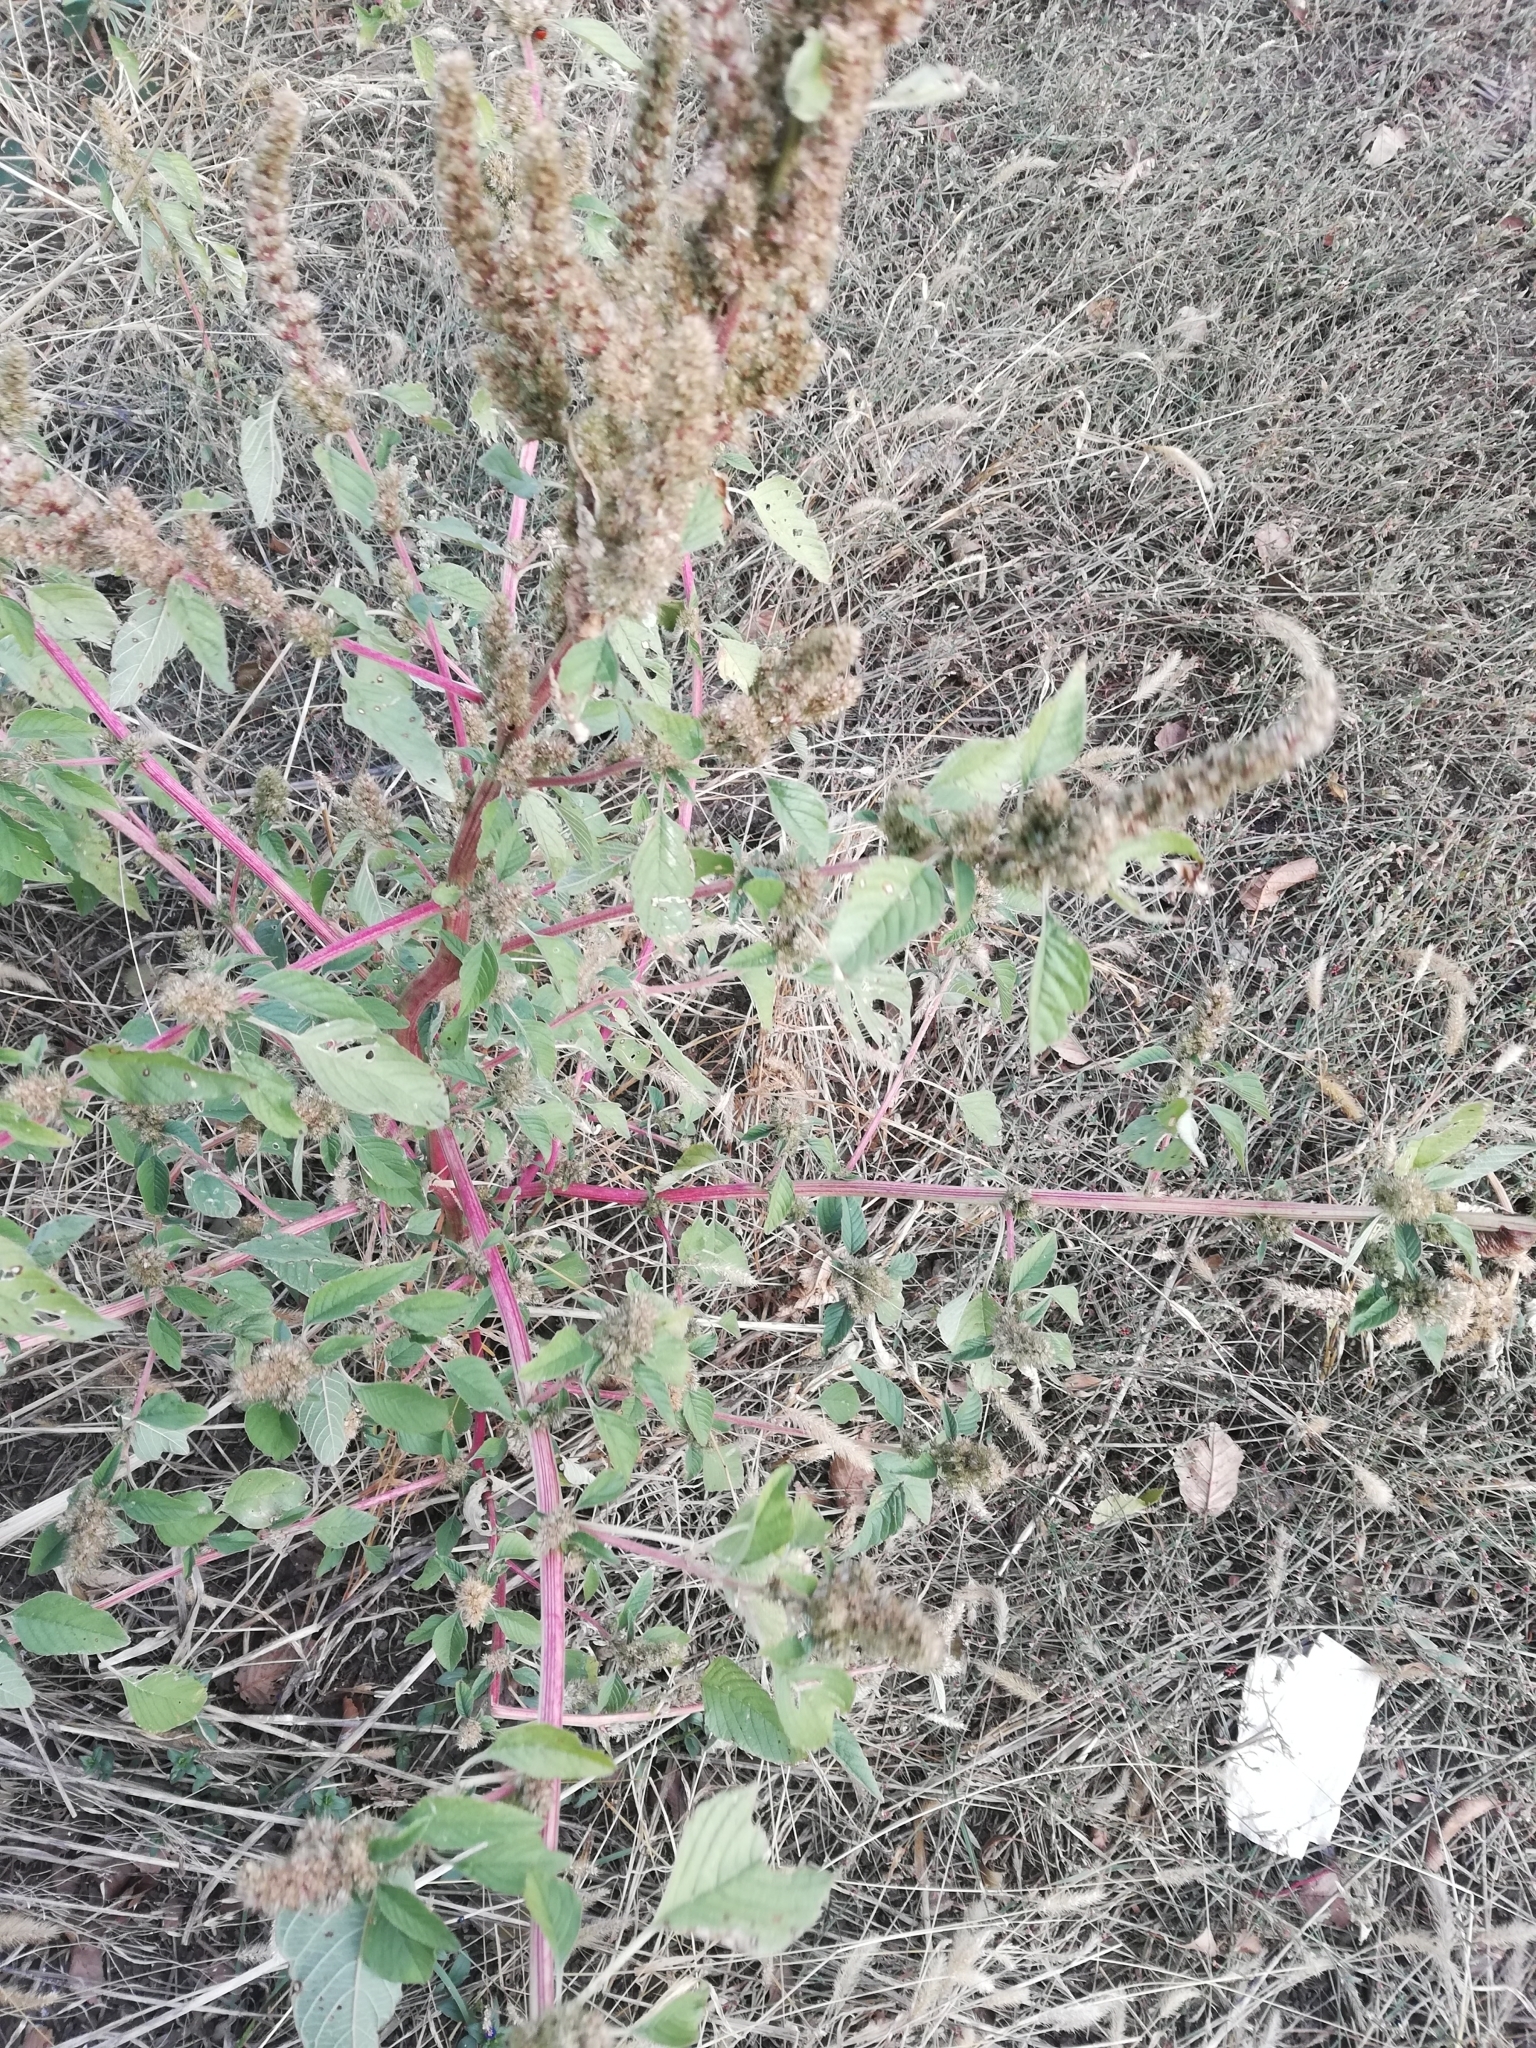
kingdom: Plantae
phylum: Tracheophyta
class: Magnoliopsida
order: Caryophyllales
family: Amaranthaceae
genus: Amaranthus
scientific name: Amaranthus retroflexus
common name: Redroot amaranth
